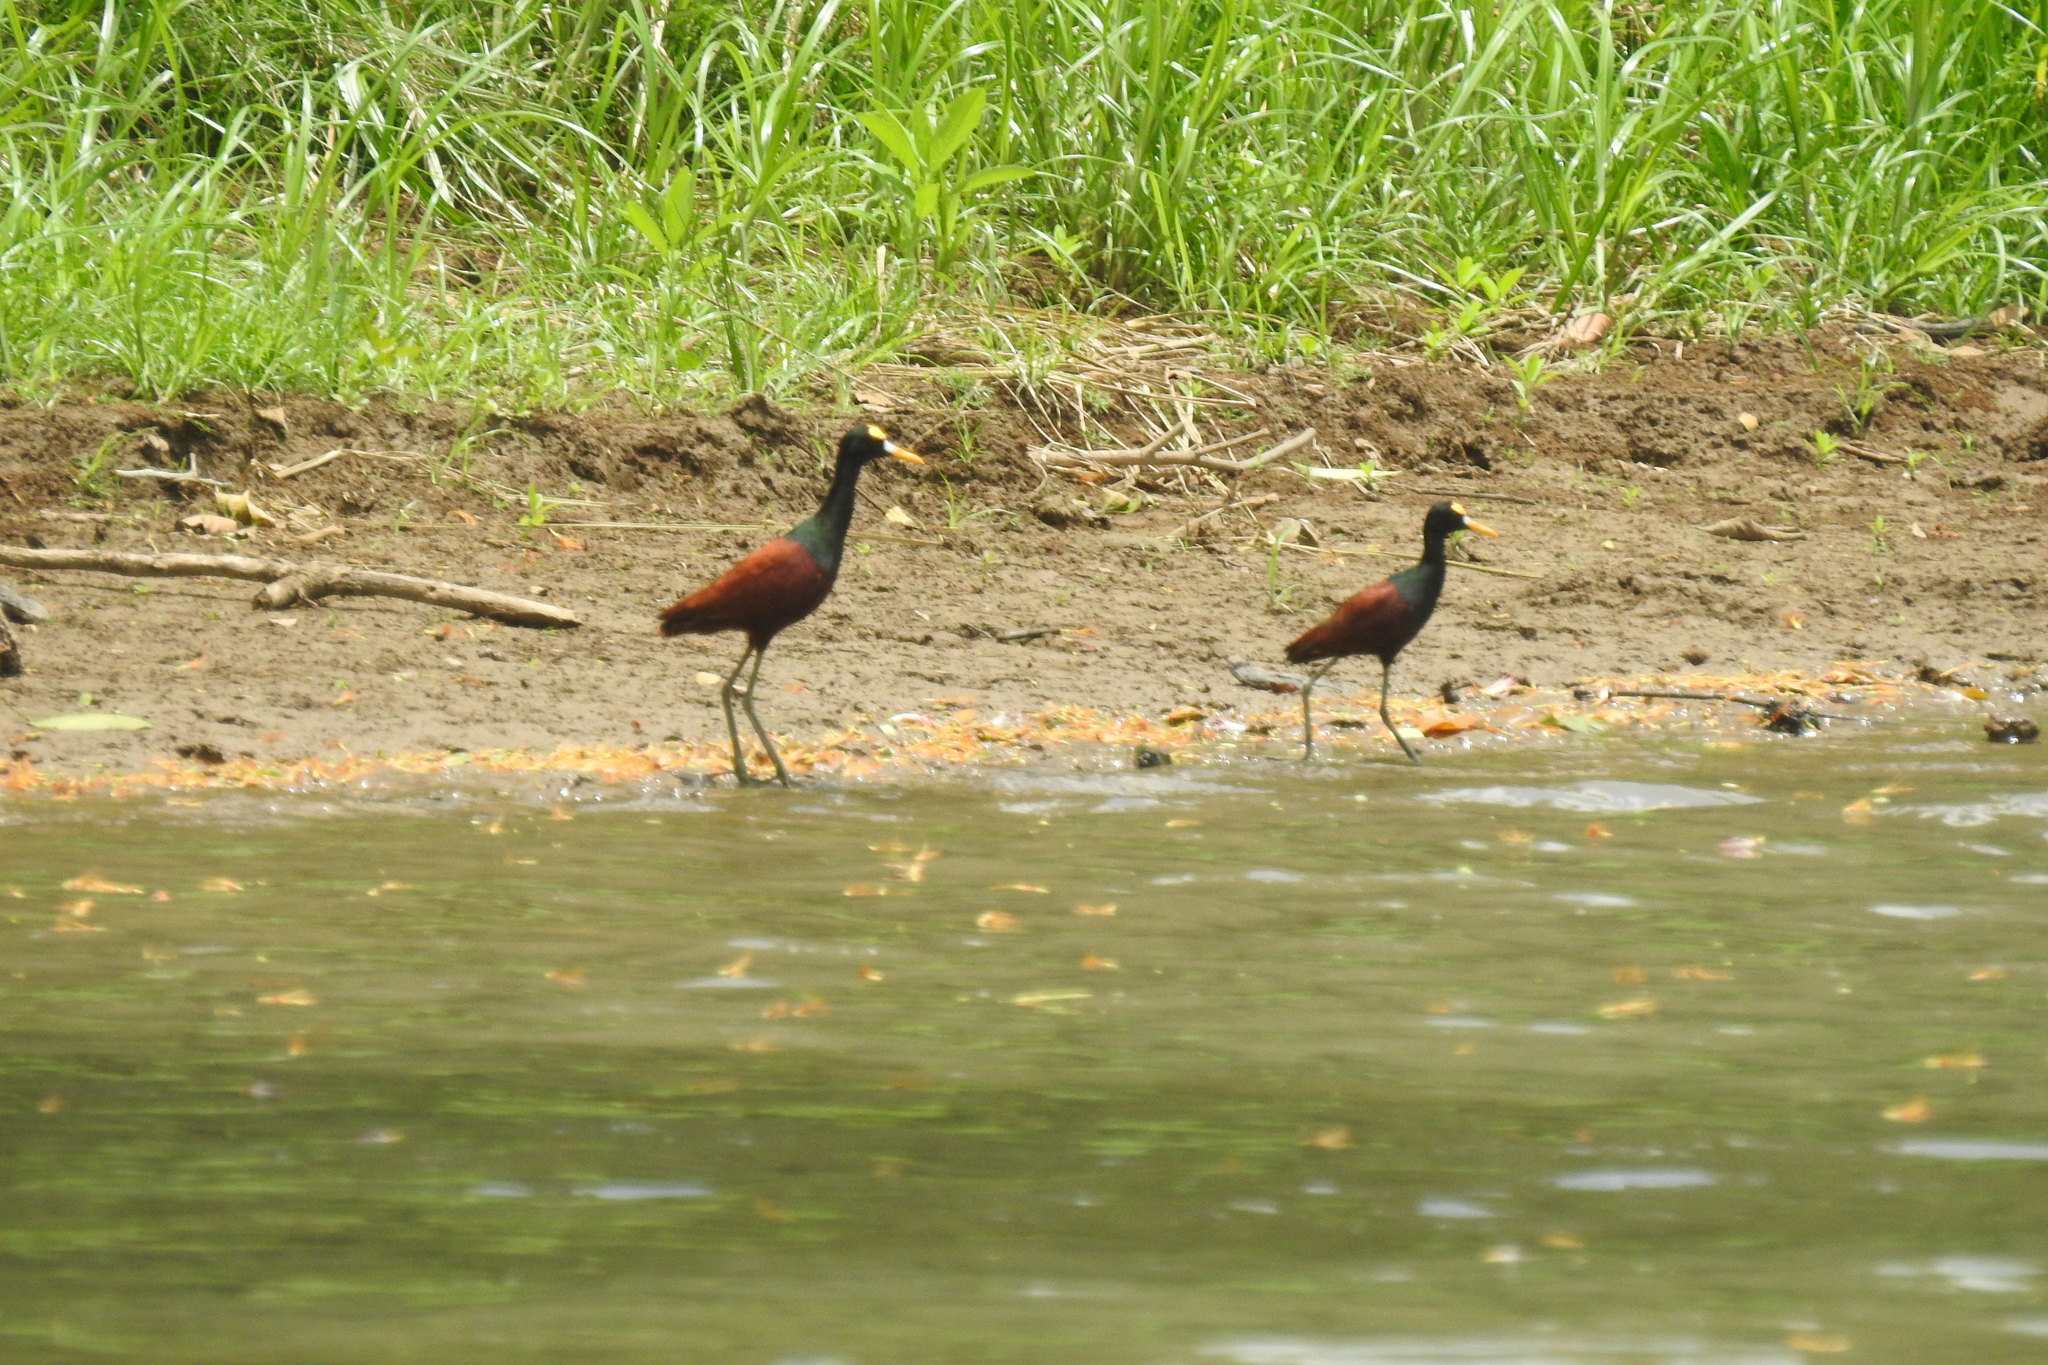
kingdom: Animalia
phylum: Chordata
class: Aves
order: Charadriiformes
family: Jacanidae
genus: Jacana
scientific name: Jacana spinosa
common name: Northern jacana
